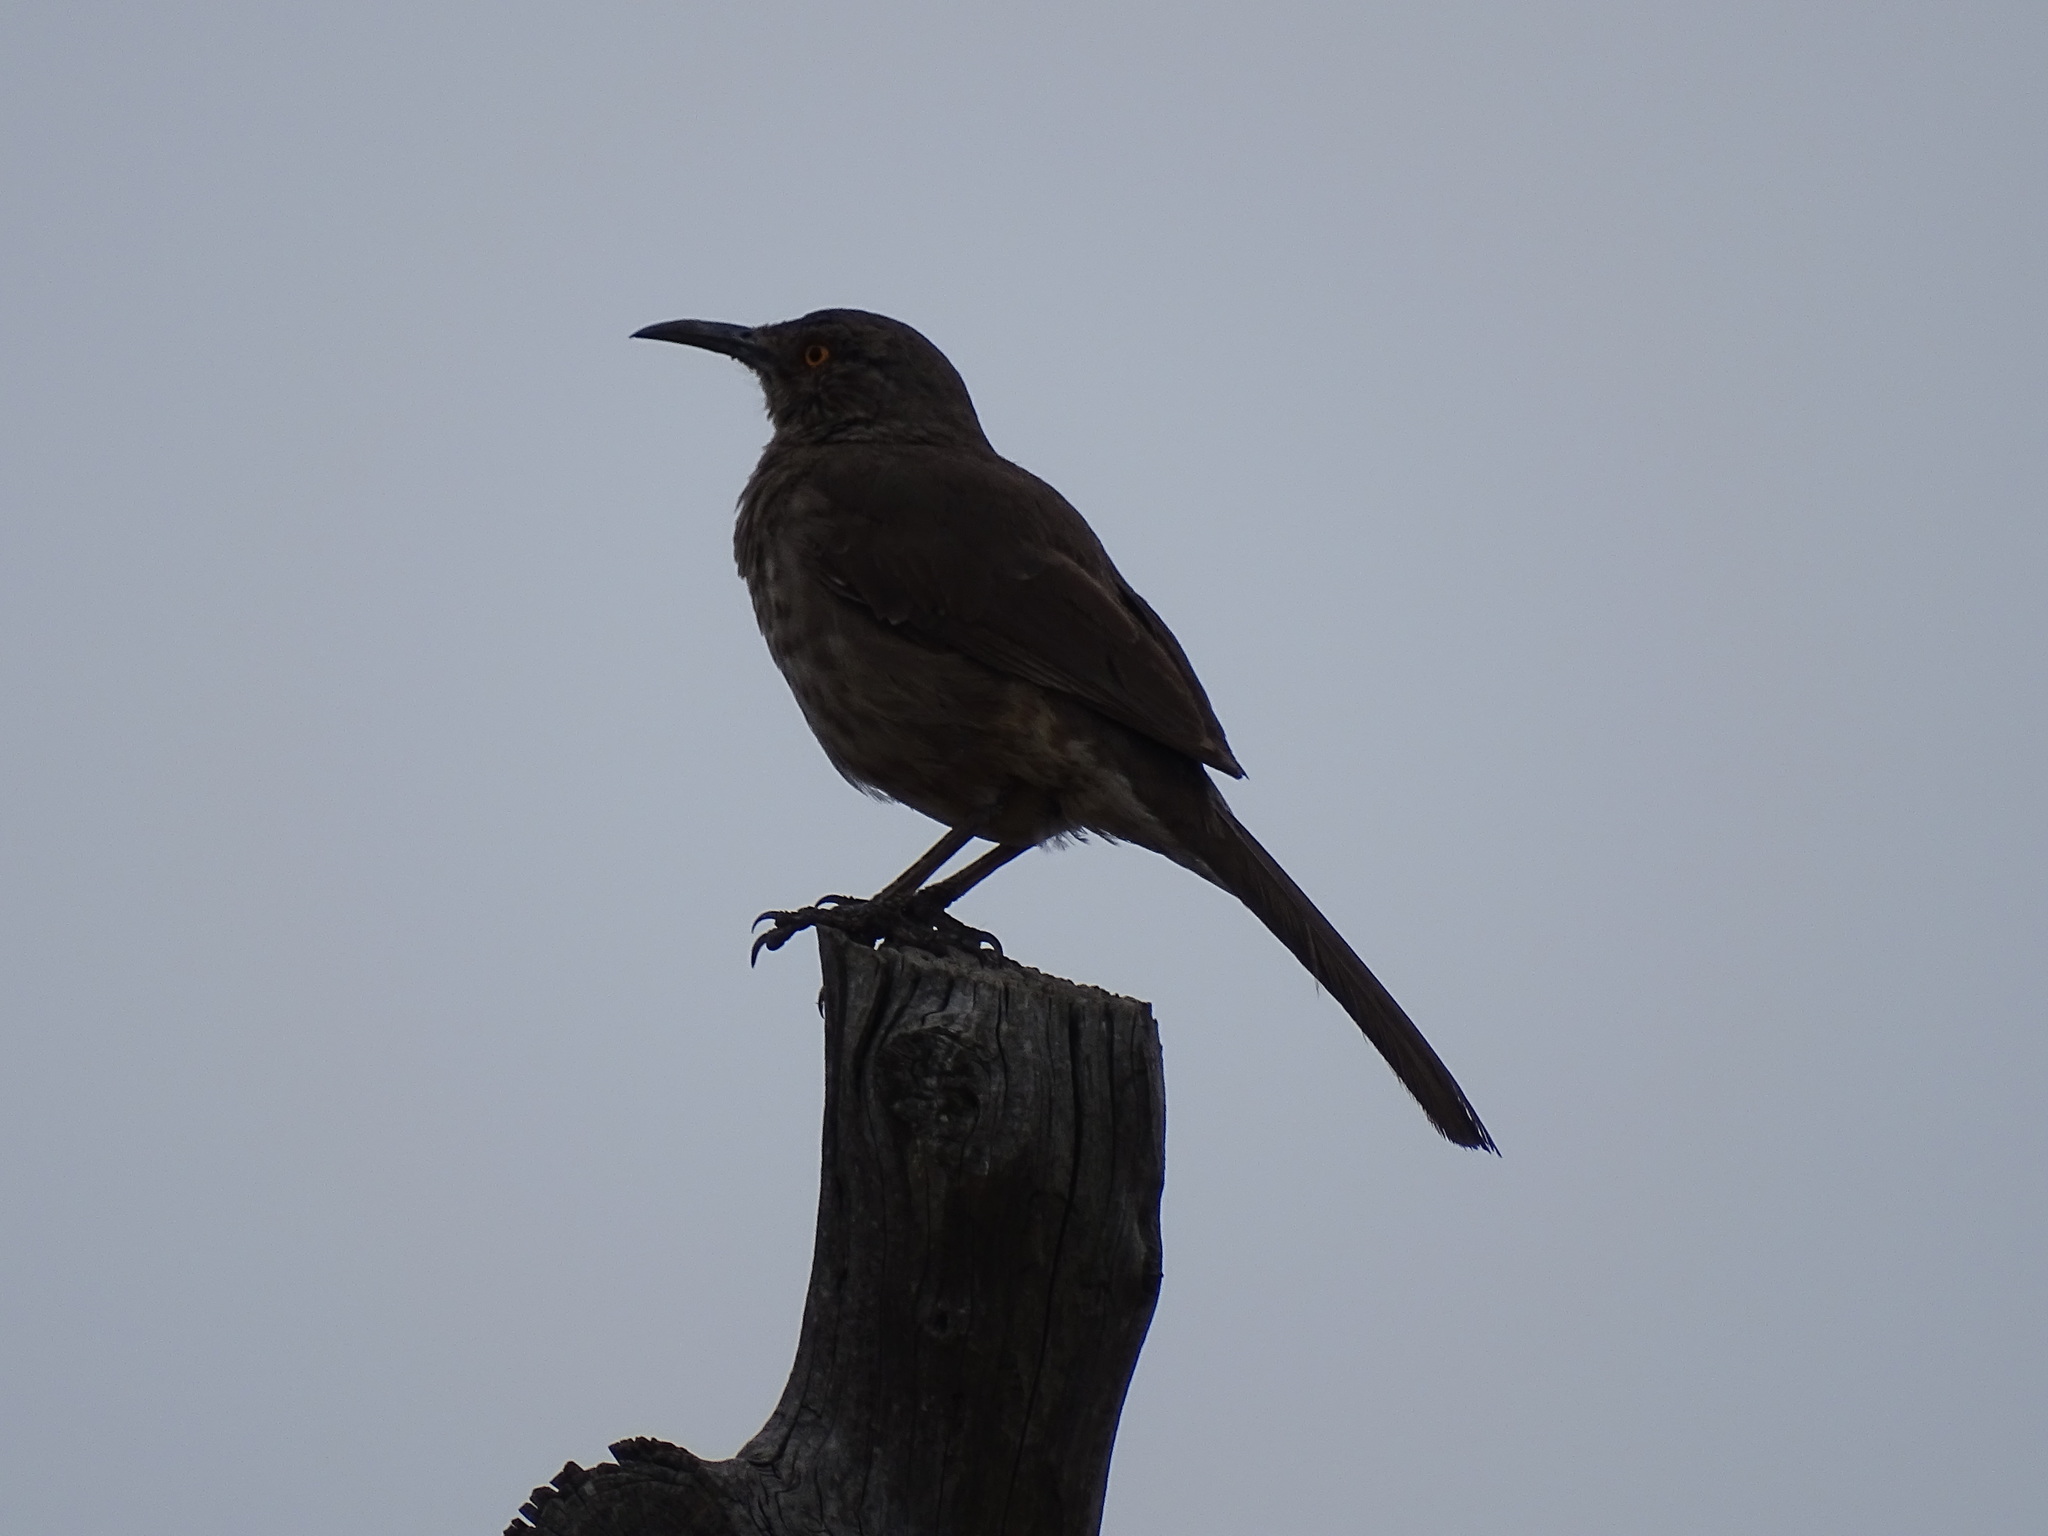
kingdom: Animalia
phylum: Chordata
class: Aves
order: Passeriformes
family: Mimidae
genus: Toxostoma
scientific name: Toxostoma curvirostre
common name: Curve-billed thrasher
